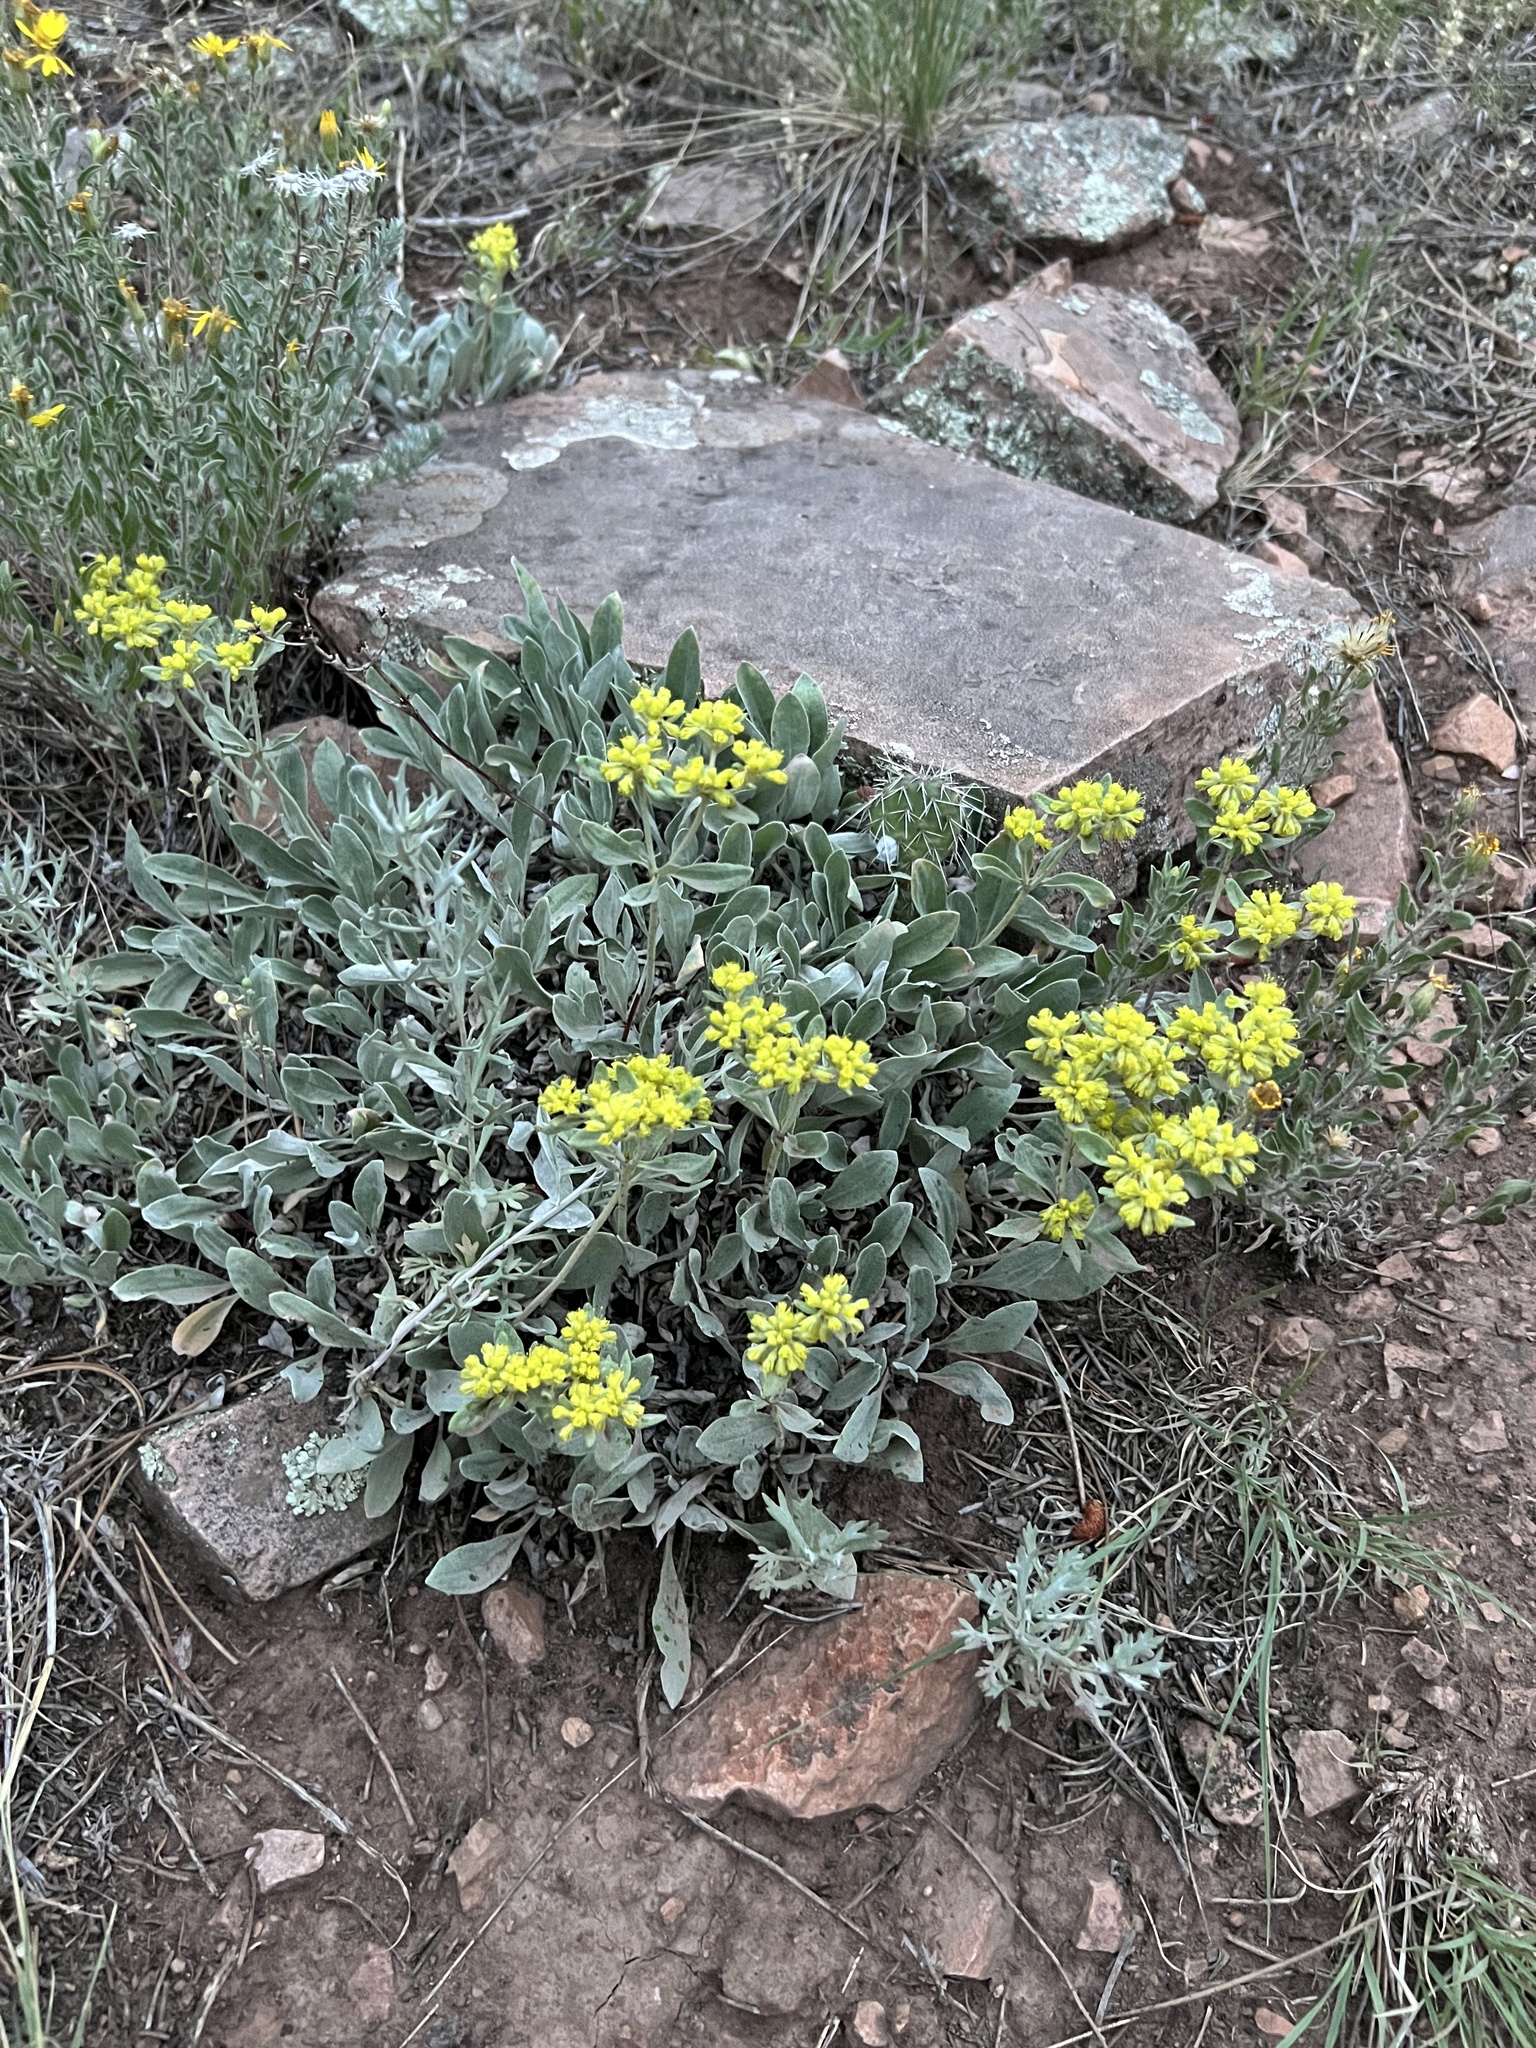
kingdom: Plantae
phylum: Tracheophyta
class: Magnoliopsida
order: Caryophyllales
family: Polygonaceae
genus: Eriogonum
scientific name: Eriogonum umbellatum
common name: Sulfur-buckwheat
